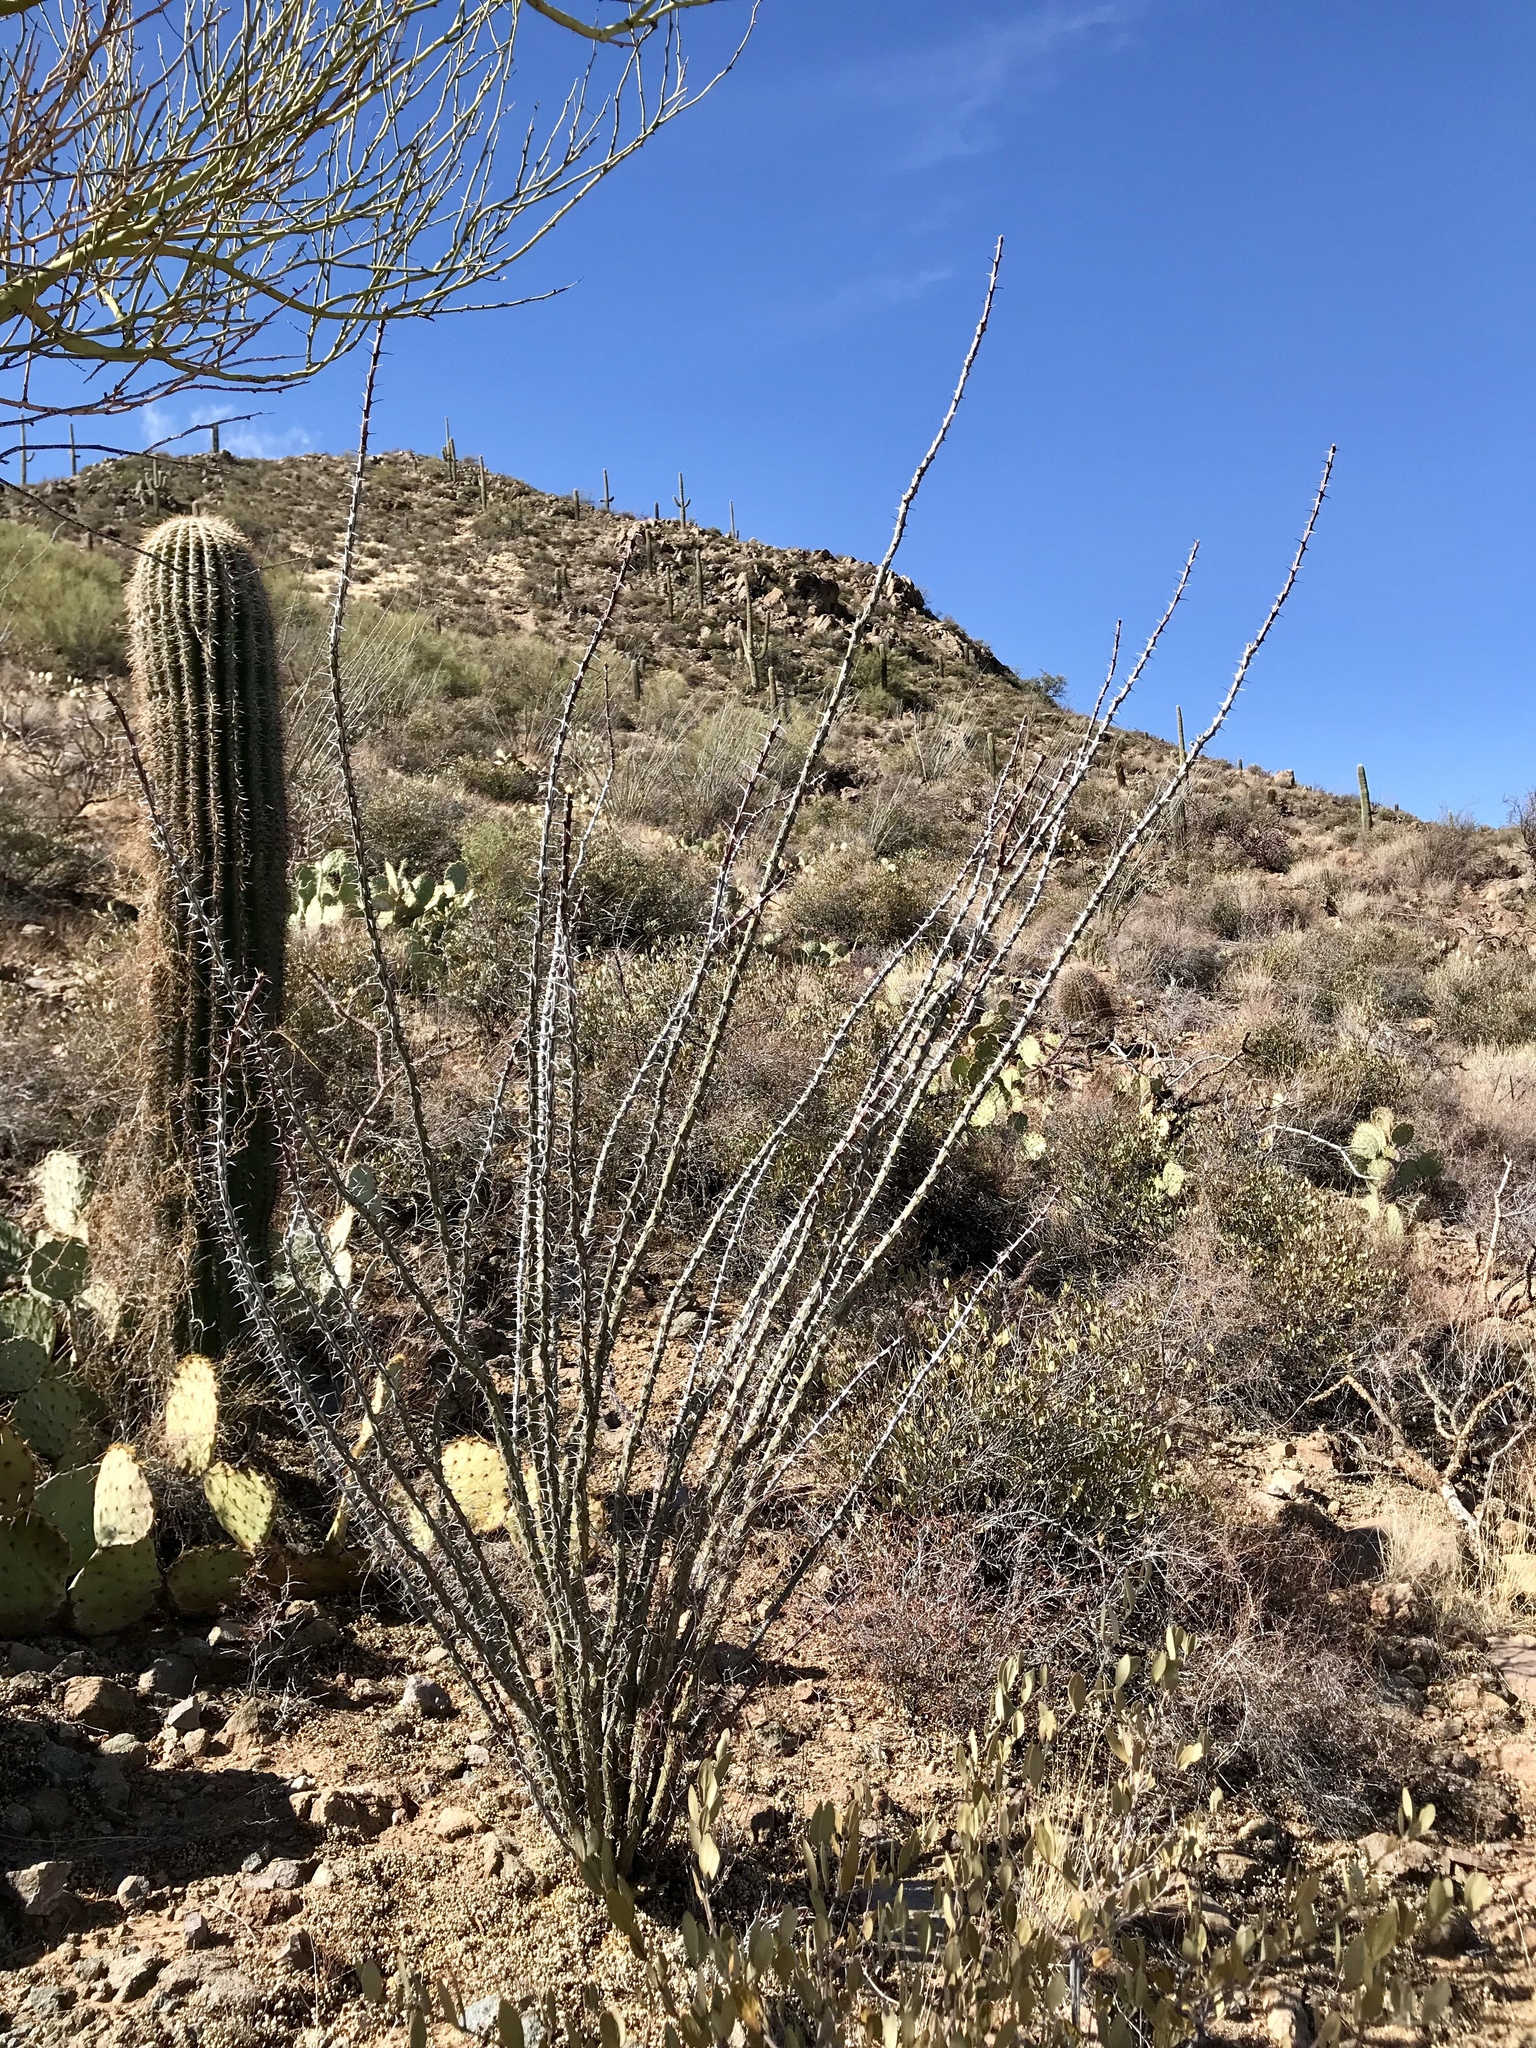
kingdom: Plantae
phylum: Tracheophyta
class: Magnoliopsida
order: Ericales
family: Fouquieriaceae
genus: Fouquieria
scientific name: Fouquieria splendens
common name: Vine-cactus
